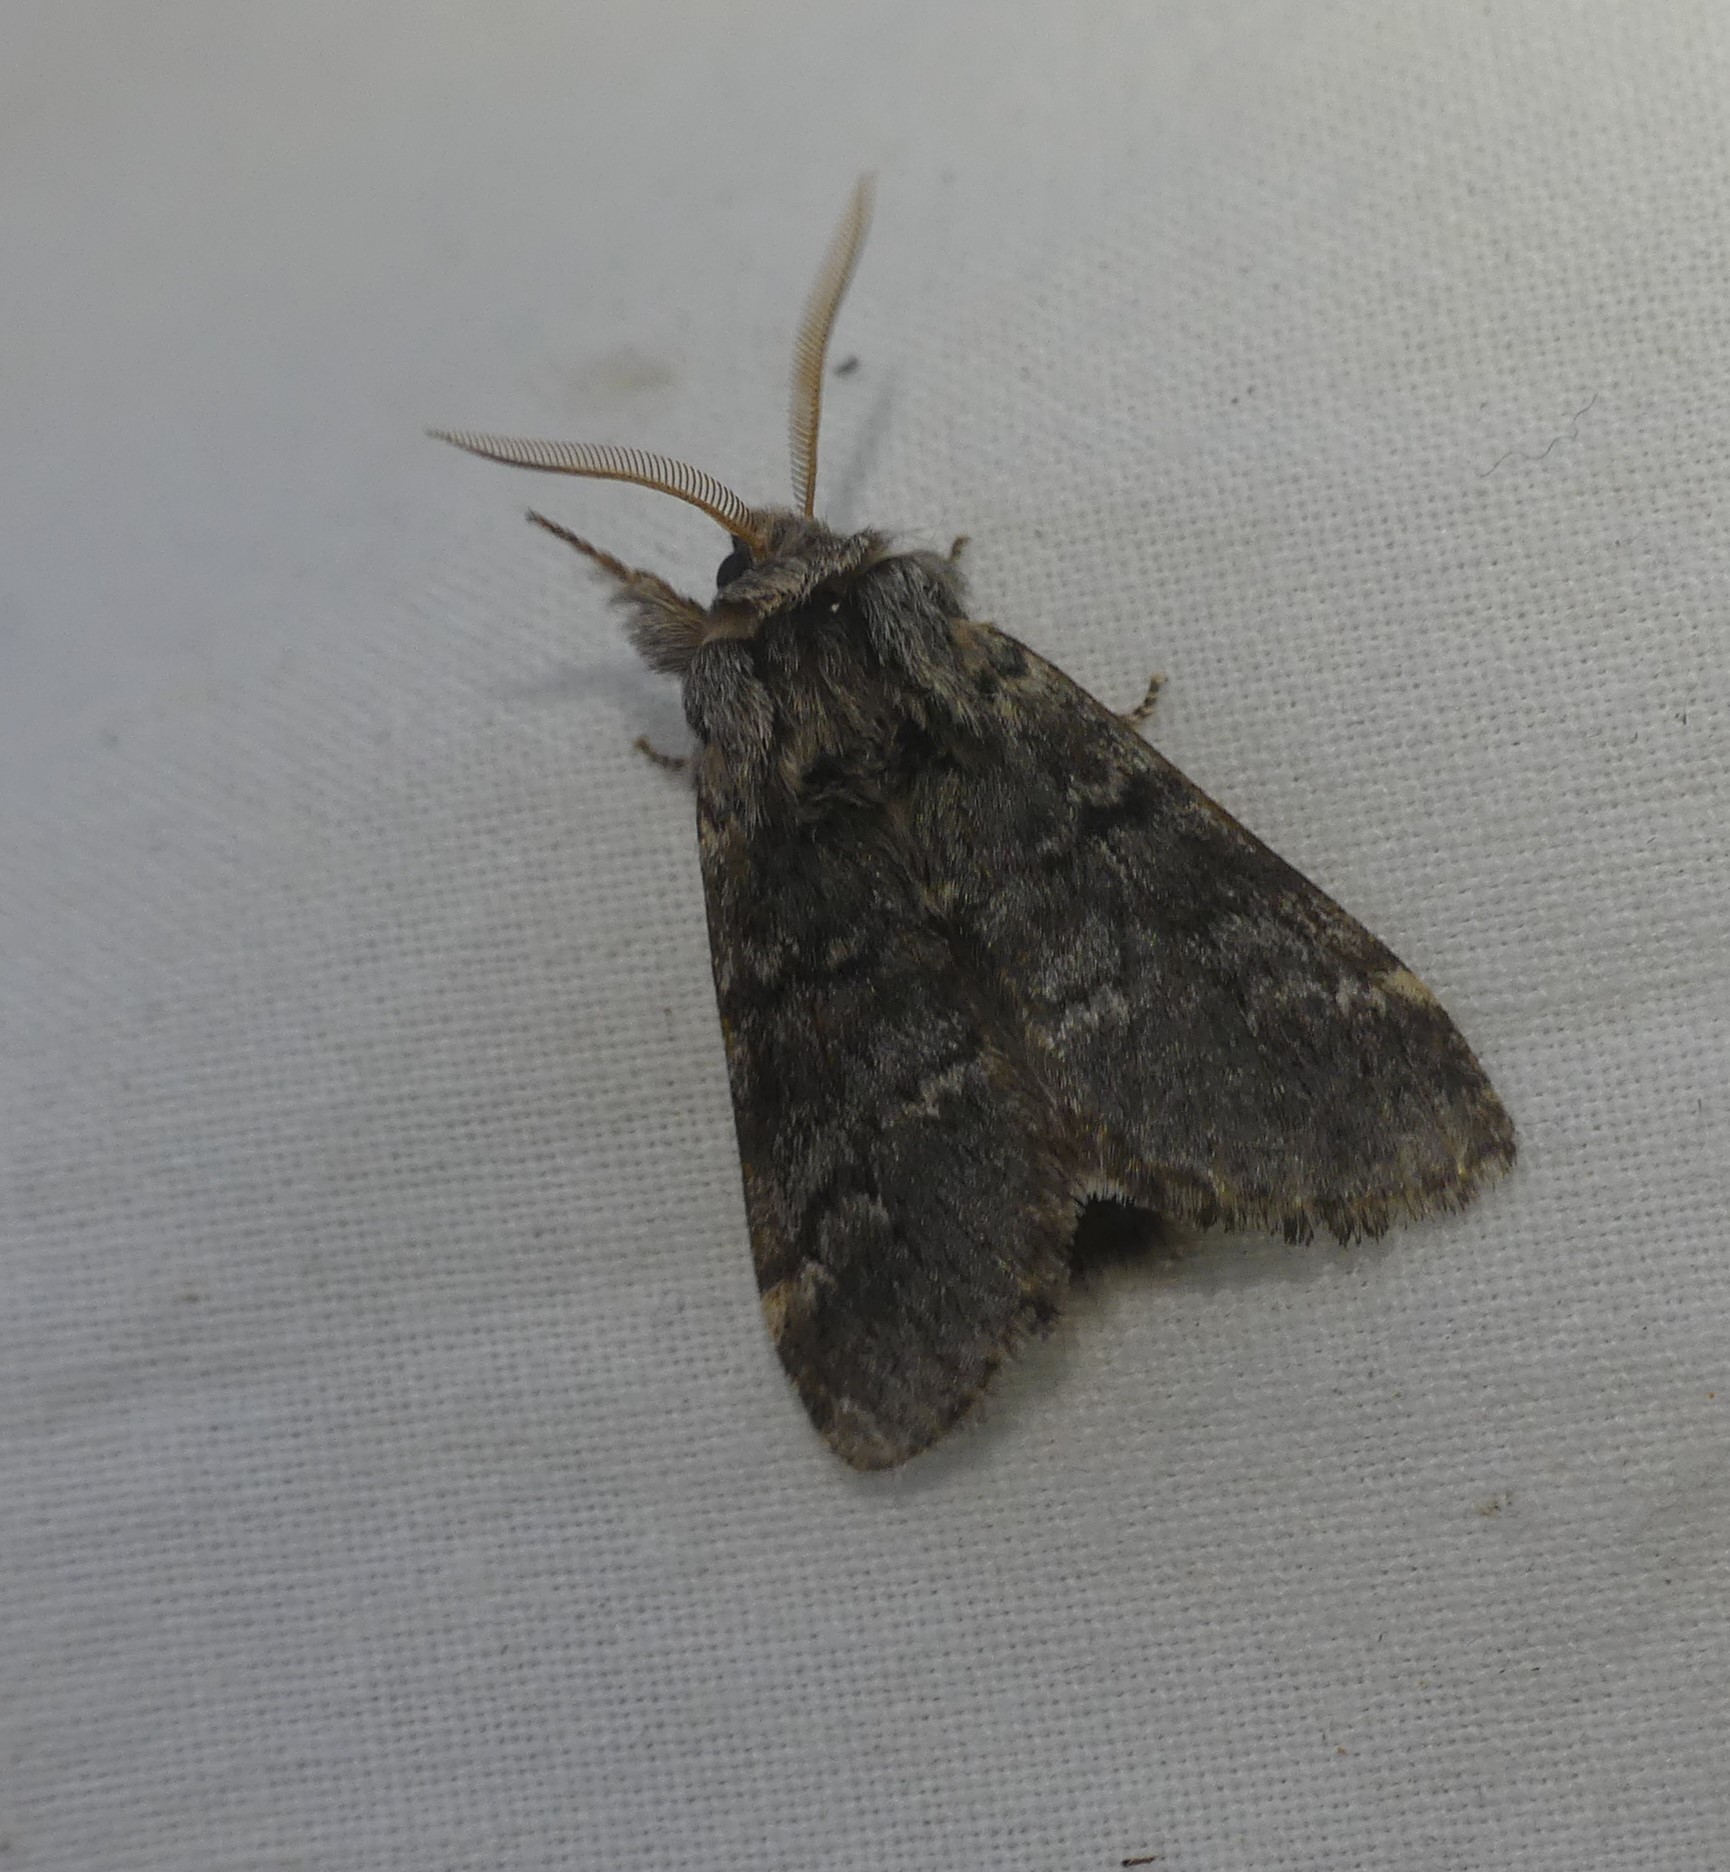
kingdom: Animalia
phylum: Arthropoda
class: Insecta
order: Lepidoptera
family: Notodontidae
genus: Drymonia
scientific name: Drymonia ruficornis
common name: Lunar marbled brown
